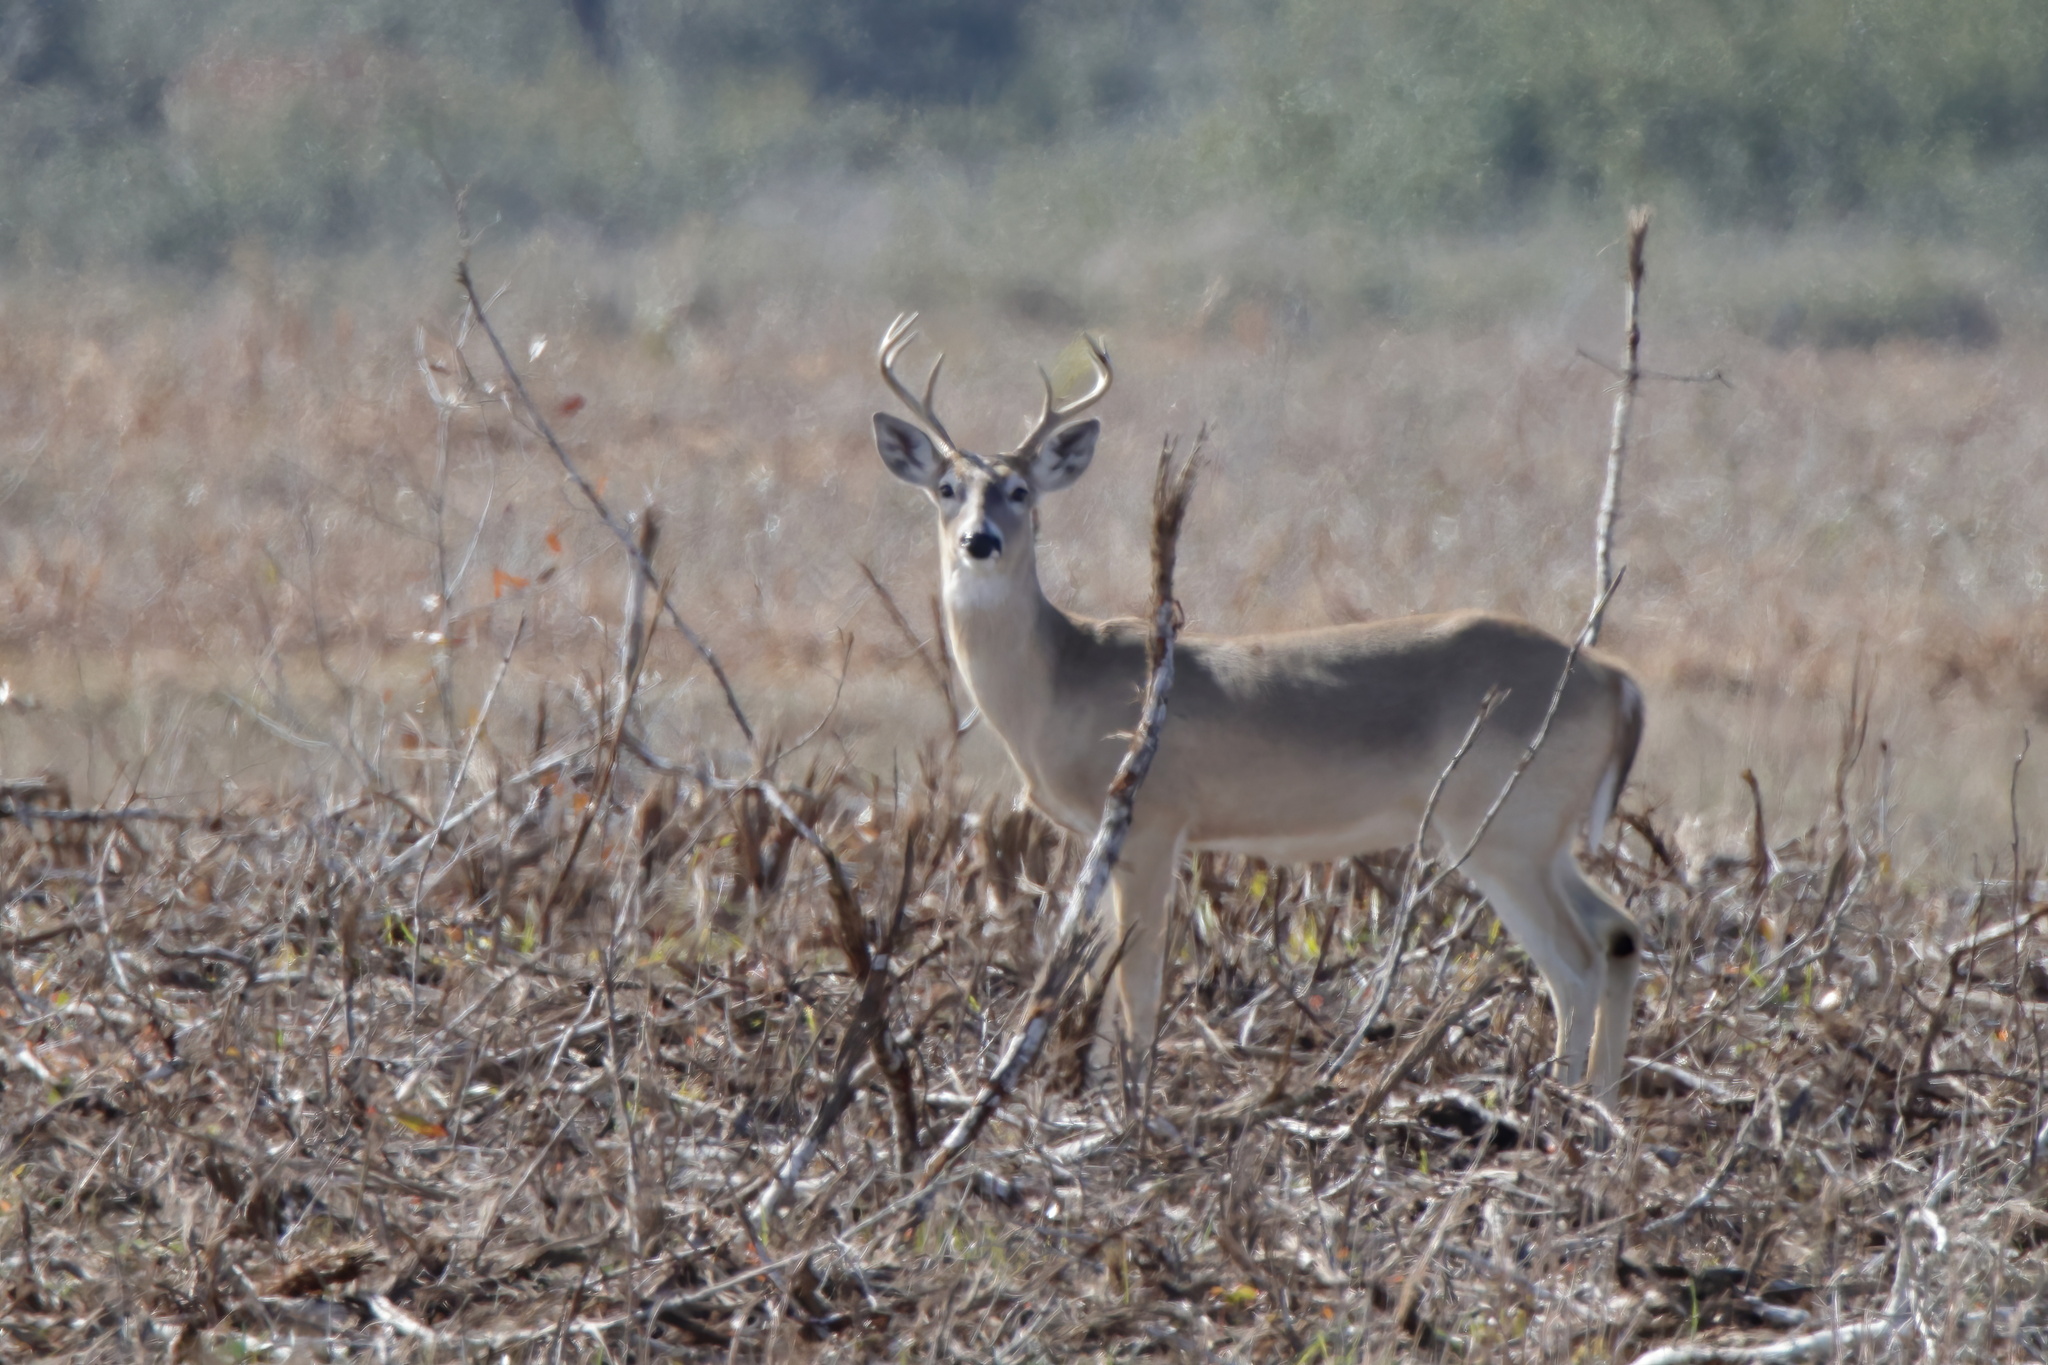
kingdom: Animalia
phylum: Chordata
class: Mammalia
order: Artiodactyla
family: Cervidae
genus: Odocoileus
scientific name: Odocoileus virginianus
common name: White-tailed deer
